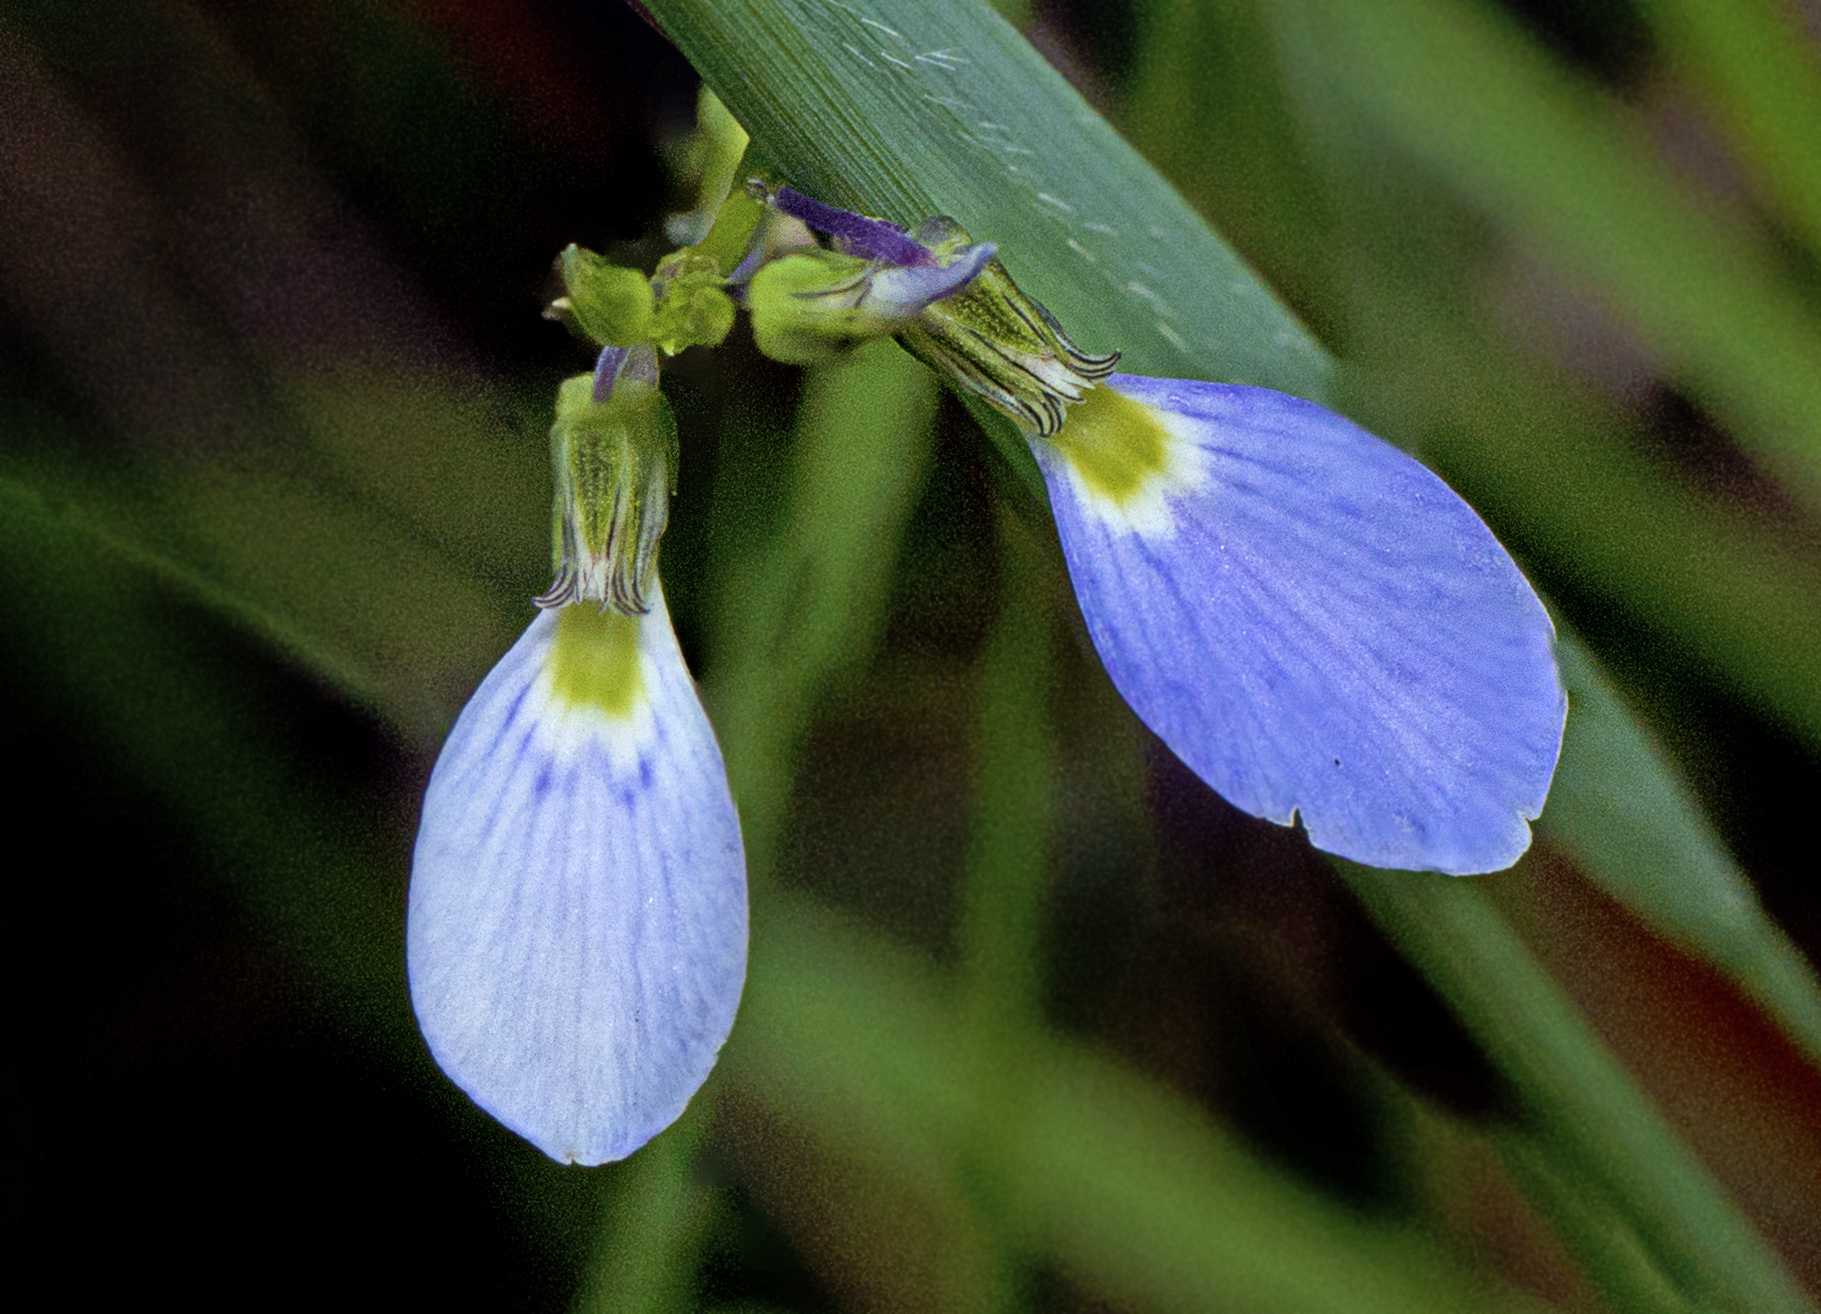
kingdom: Plantae
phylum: Tracheophyta
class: Magnoliopsida
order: Malpighiales
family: Violaceae
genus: Pigea
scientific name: Pigea monopetala
